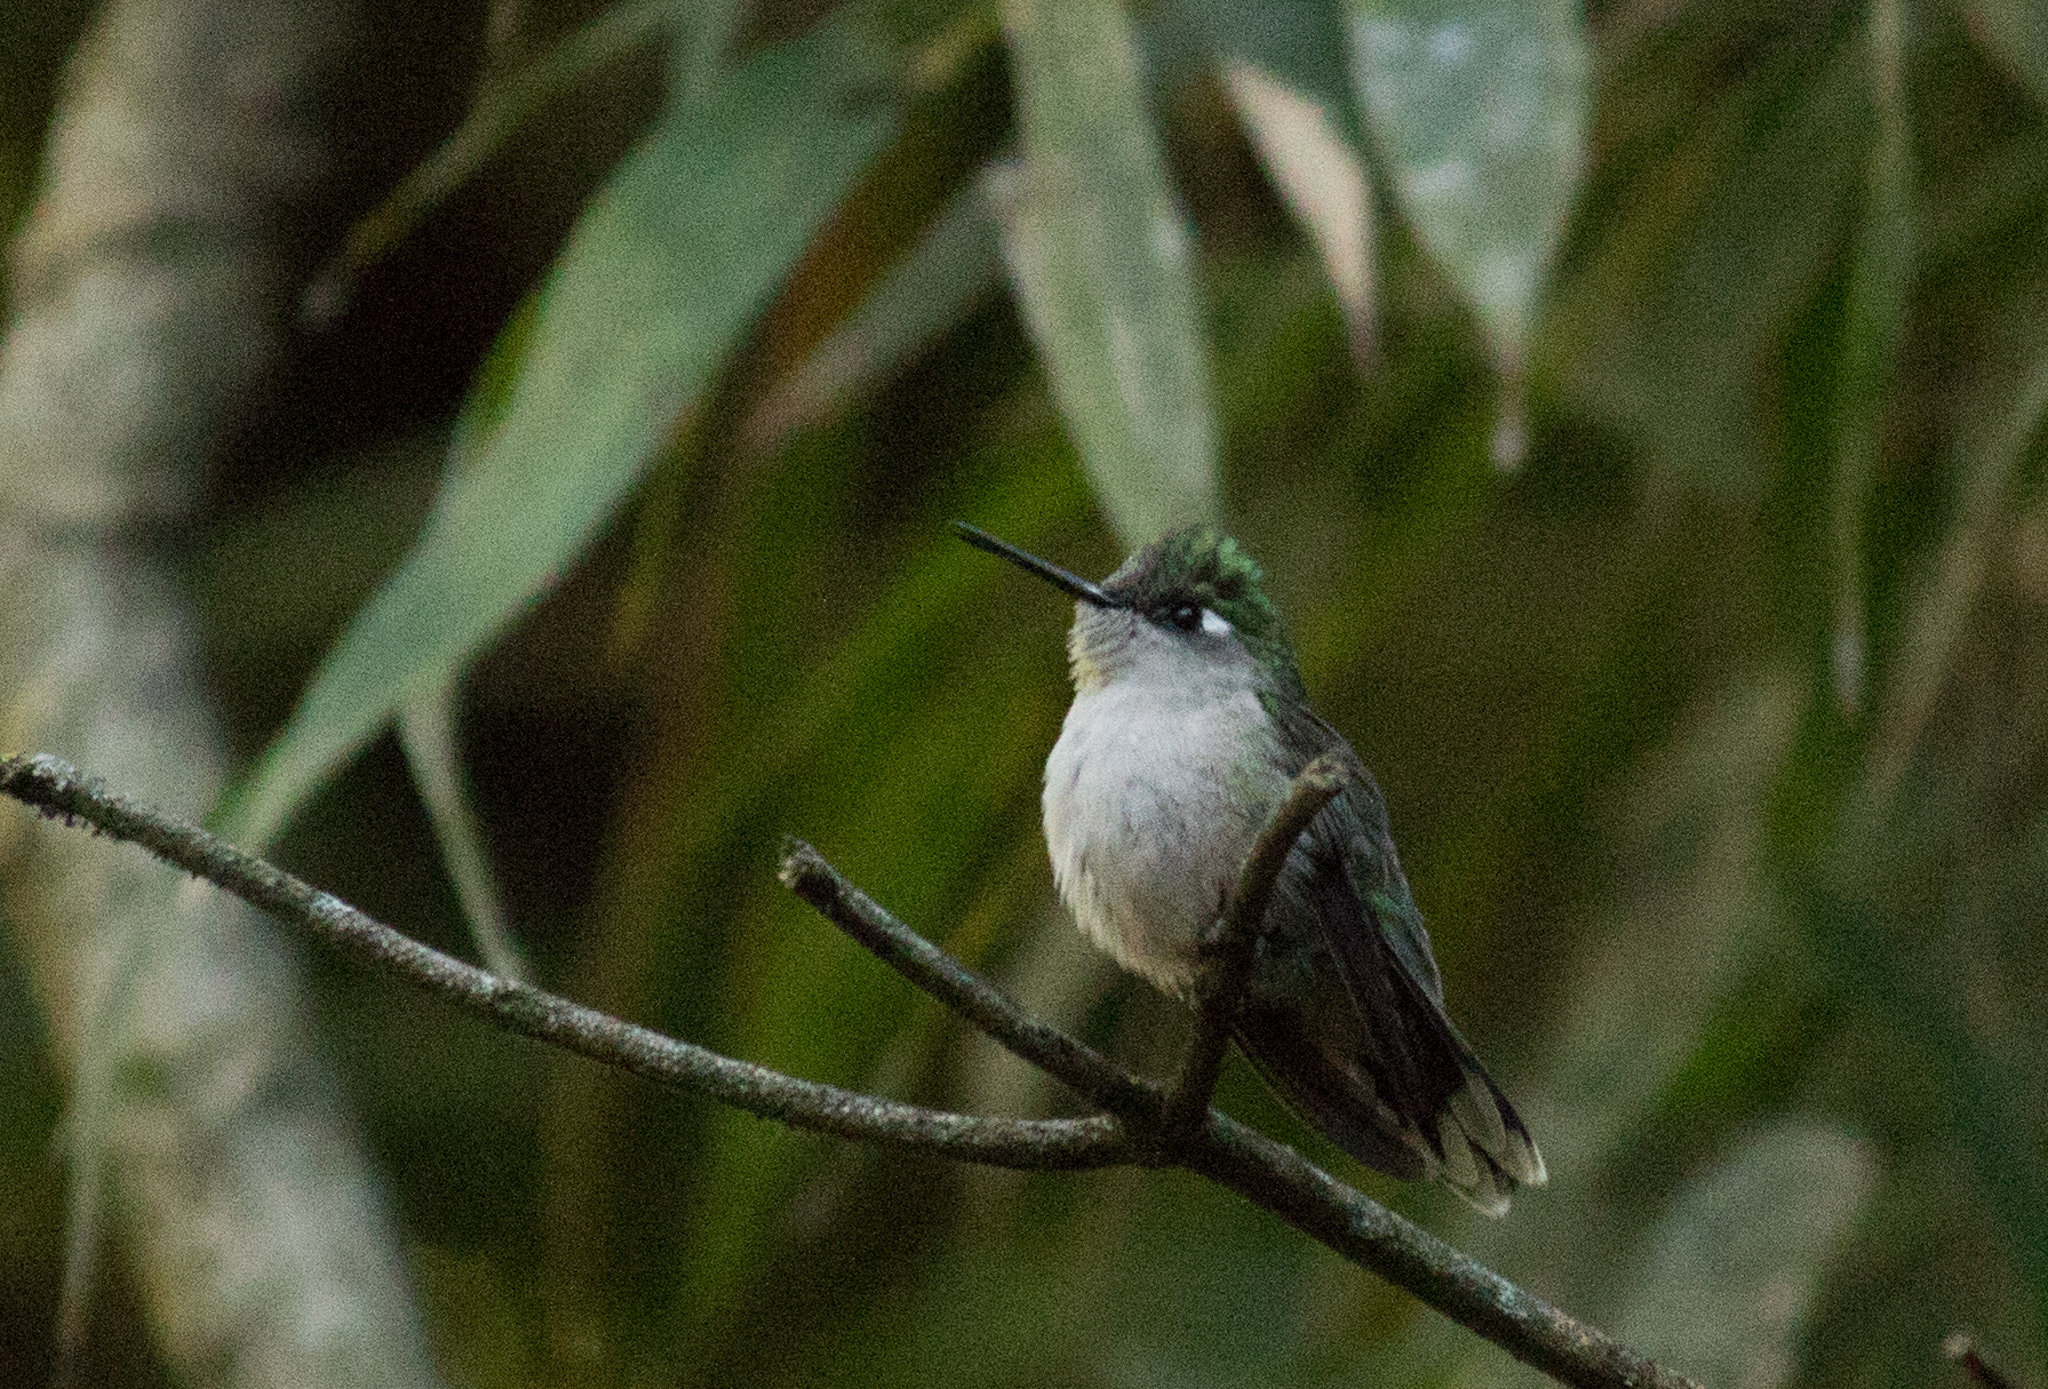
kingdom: Animalia
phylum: Chordata
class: Aves
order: Apodiformes
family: Trochilidae
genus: Stephanoxis
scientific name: Stephanoxis loddigesii
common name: Purple-crowned plovercrest
